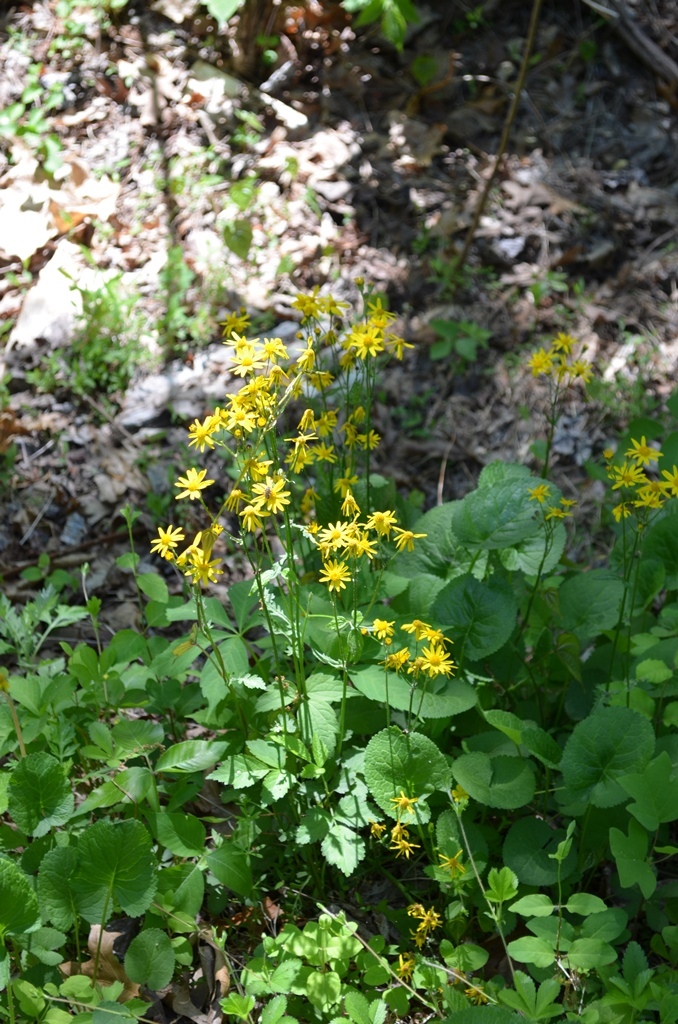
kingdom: Plantae
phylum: Tracheophyta
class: Magnoliopsida
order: Asterales
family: Asteraceae
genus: Packera
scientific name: Packera aurea
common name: Golden groundsel
